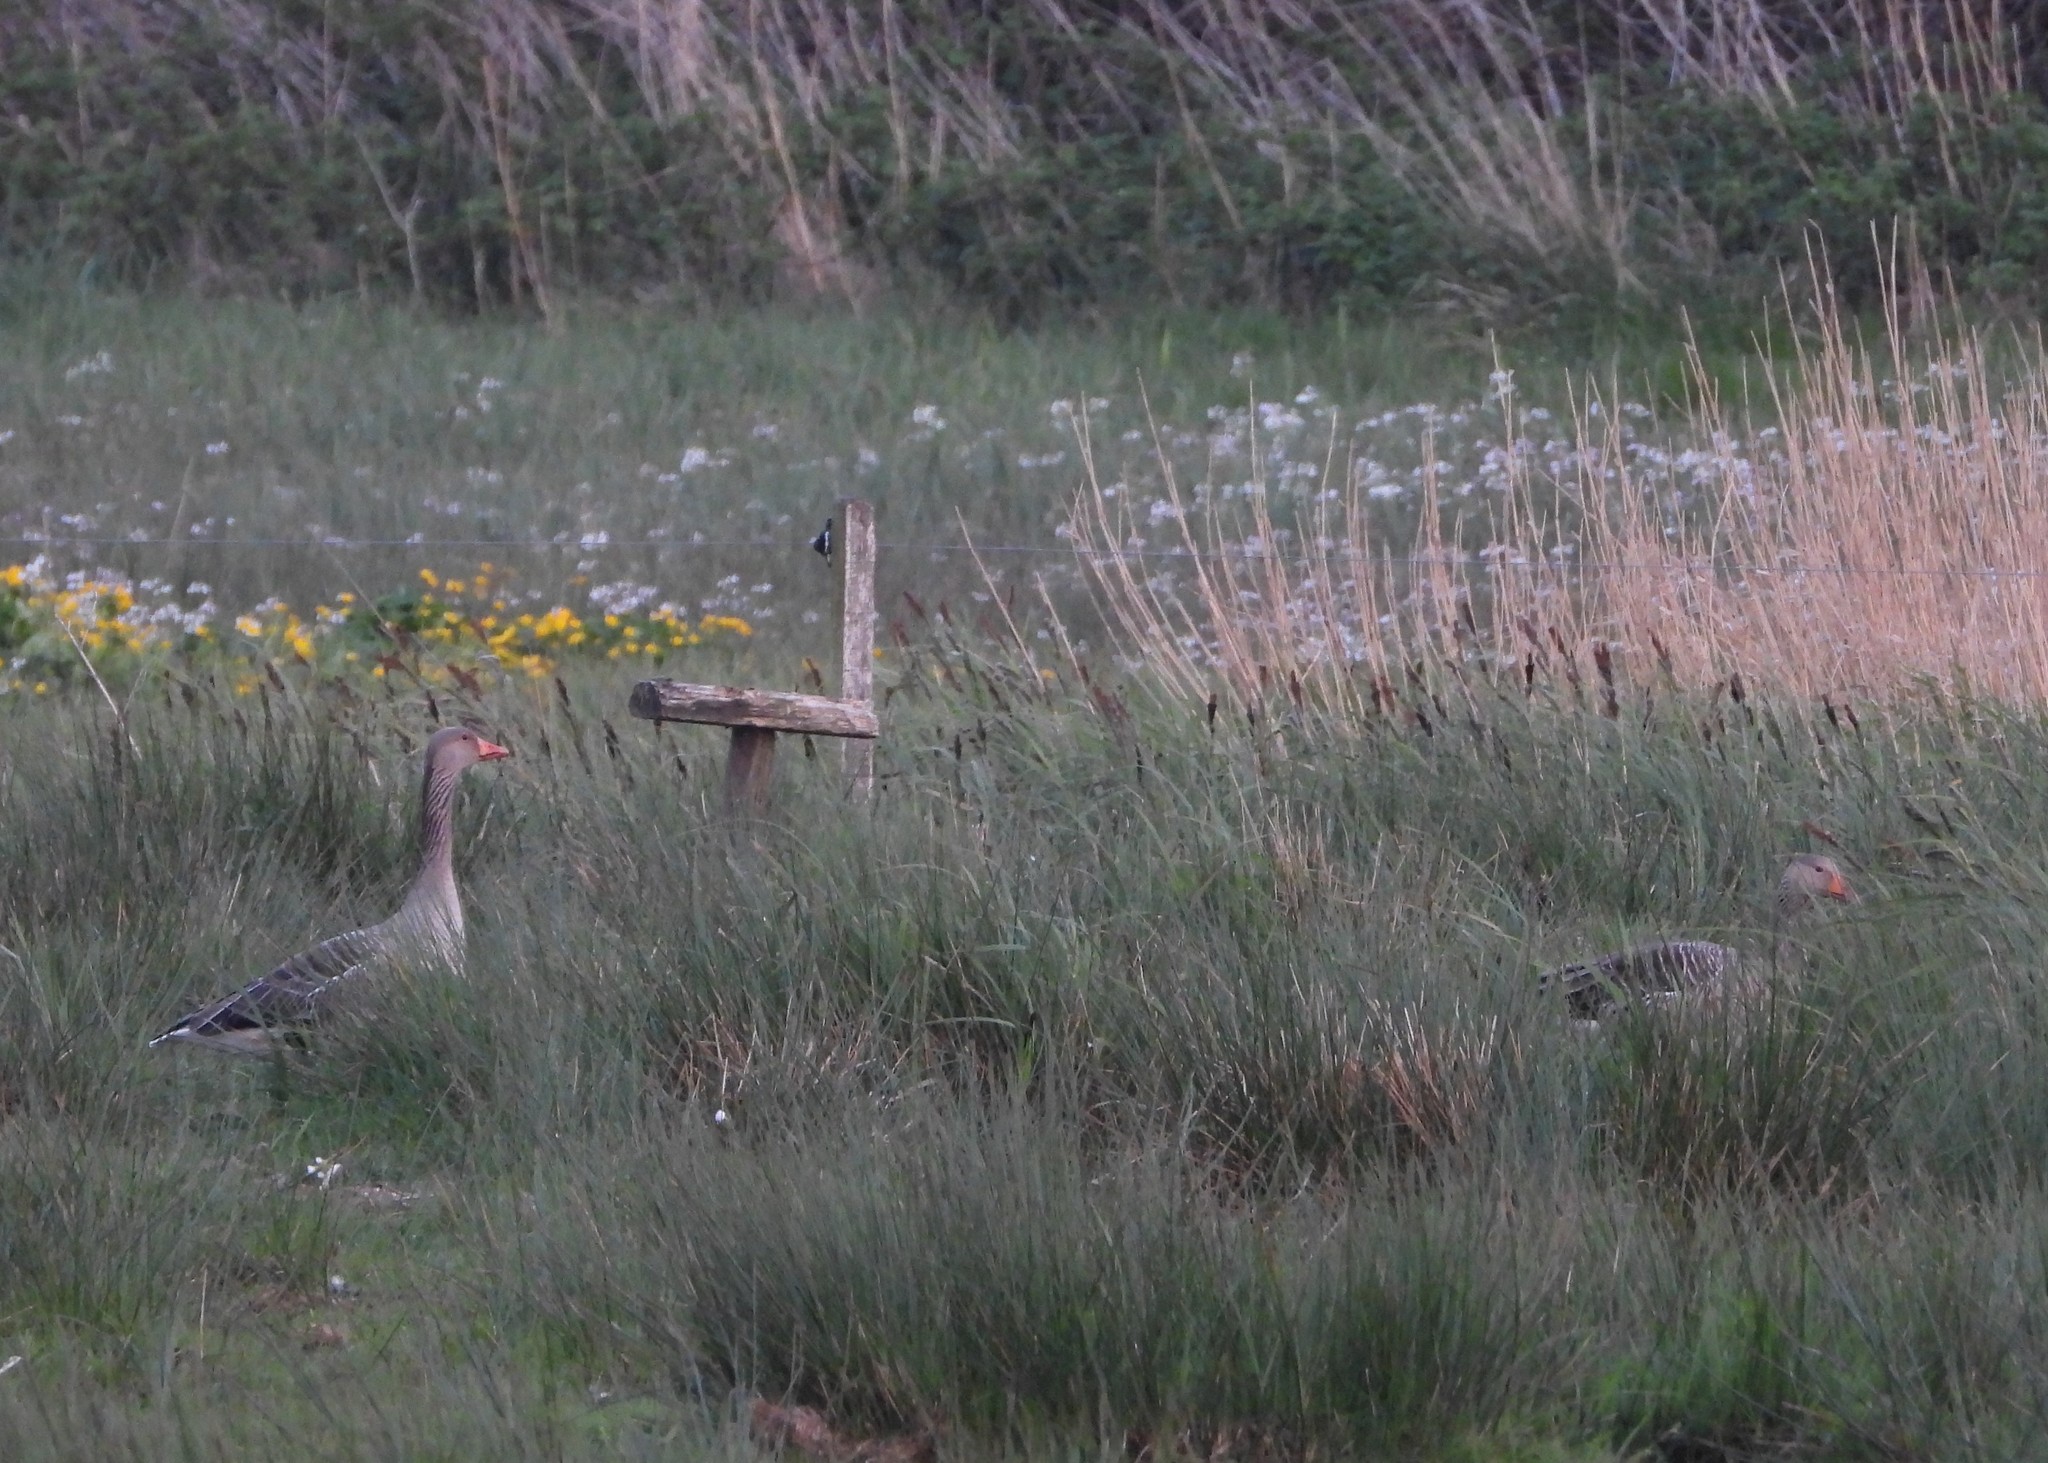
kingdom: Animalia
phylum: Chordata
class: Aves
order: Anseriformes
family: Anatidae
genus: Anser
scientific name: Anser anser
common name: Greylag goose
